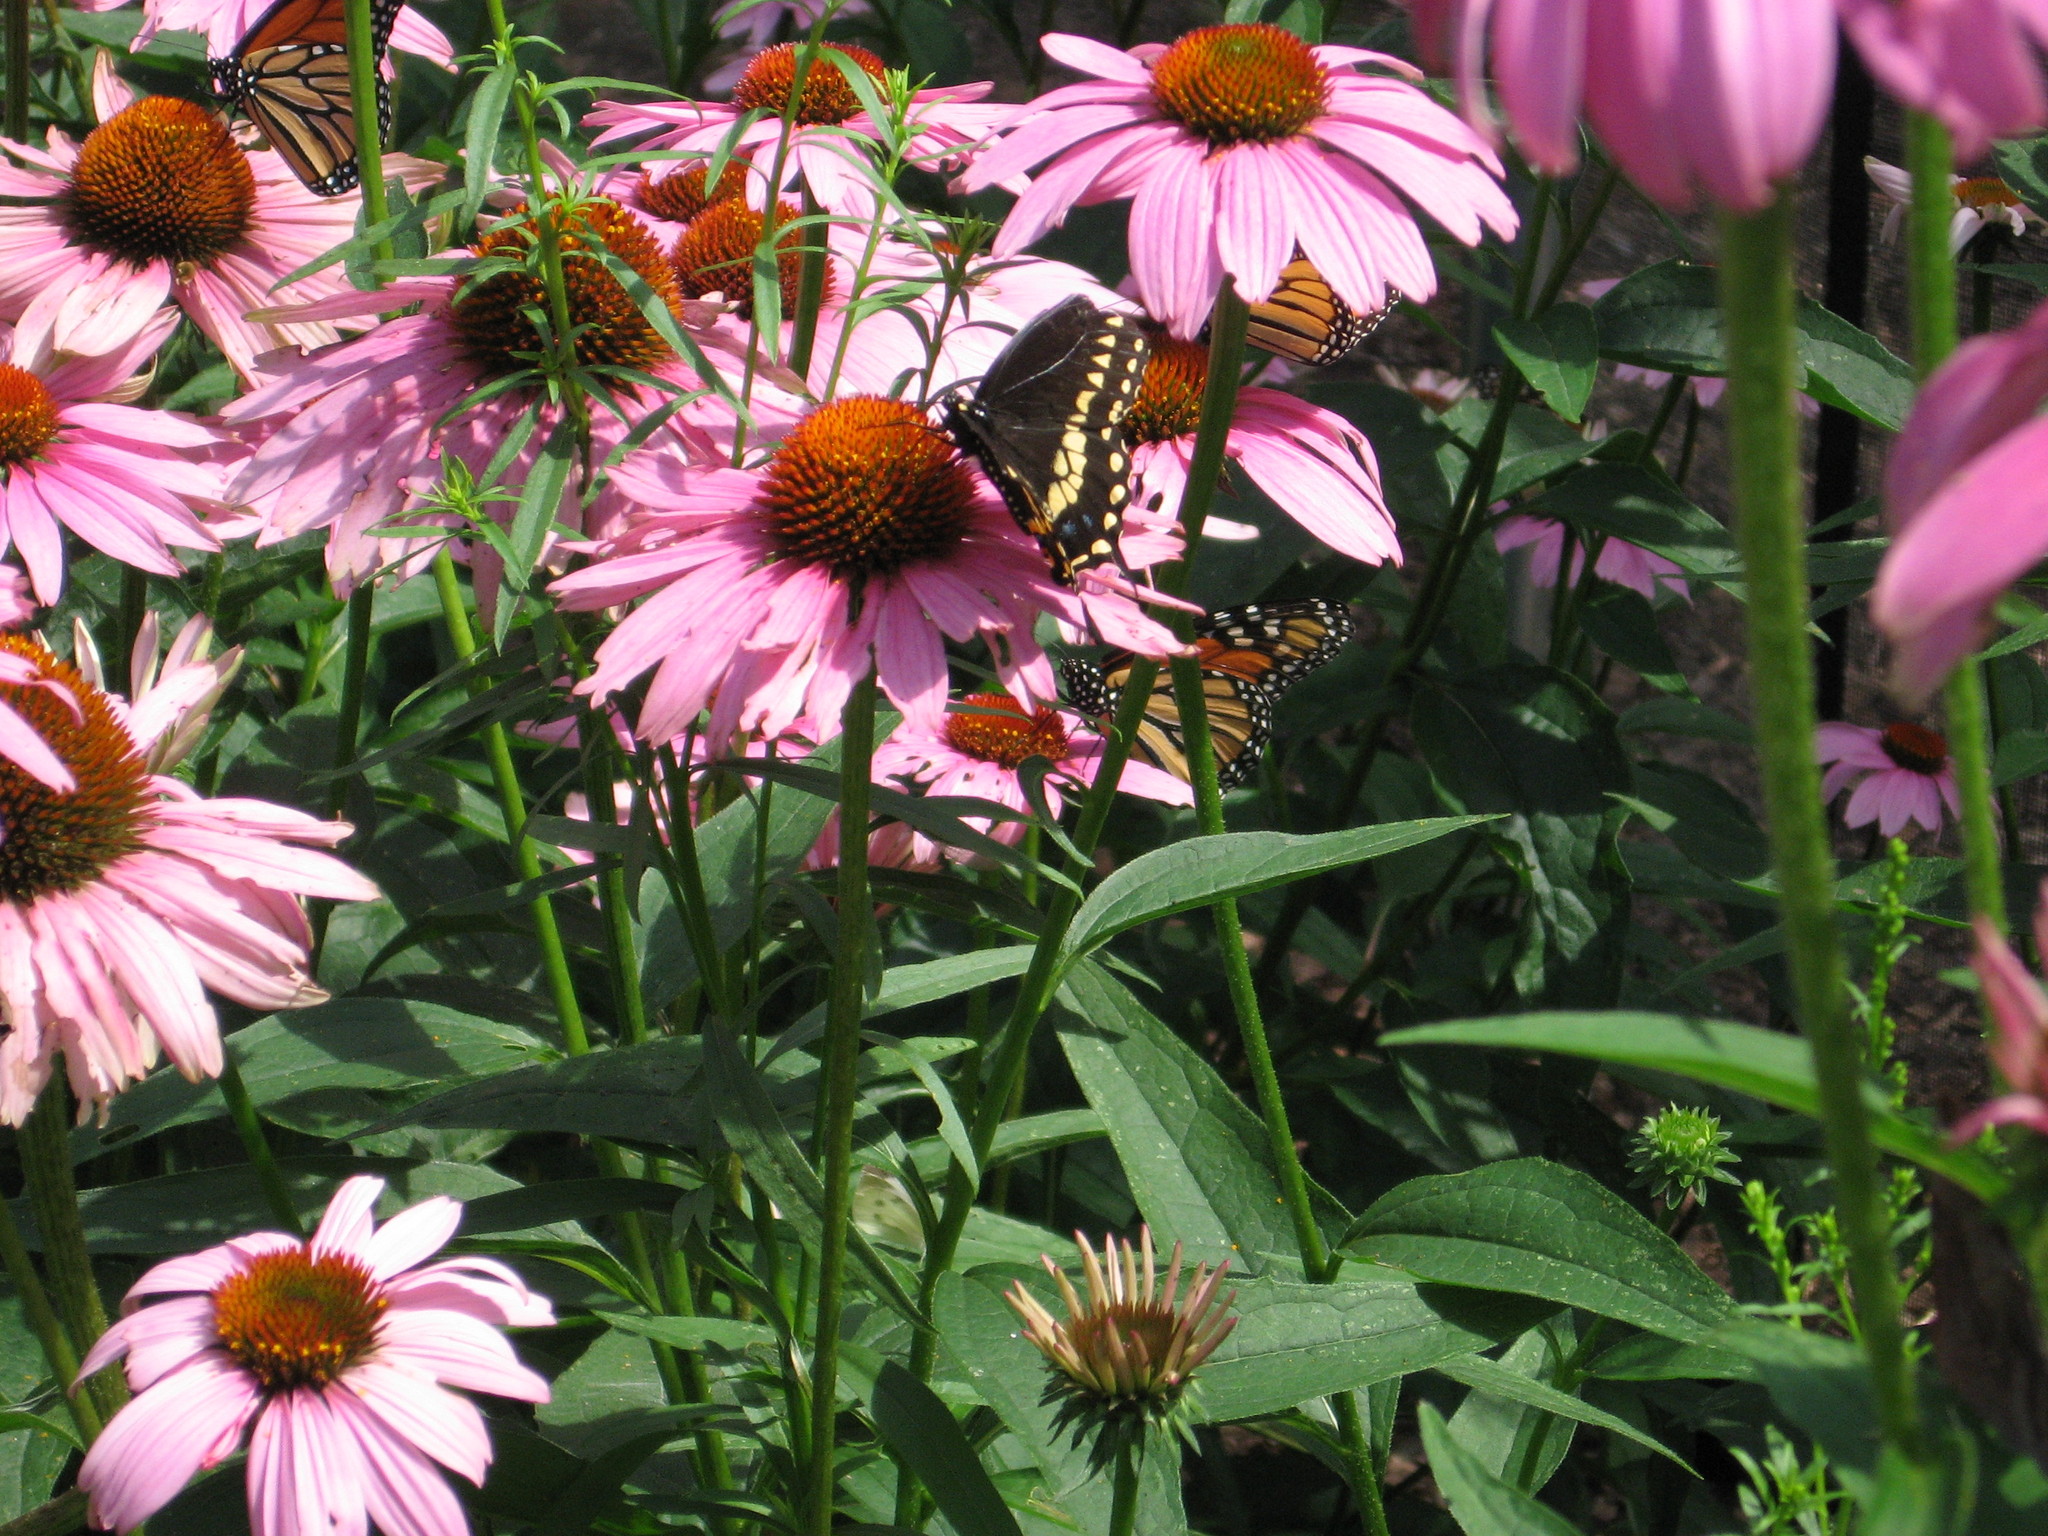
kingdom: Animalia
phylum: Arthropoda
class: Insecta
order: Lepidoptera
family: Papilionidae
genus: Papilio
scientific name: Papilio polyxenes
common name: Black swallowtail
